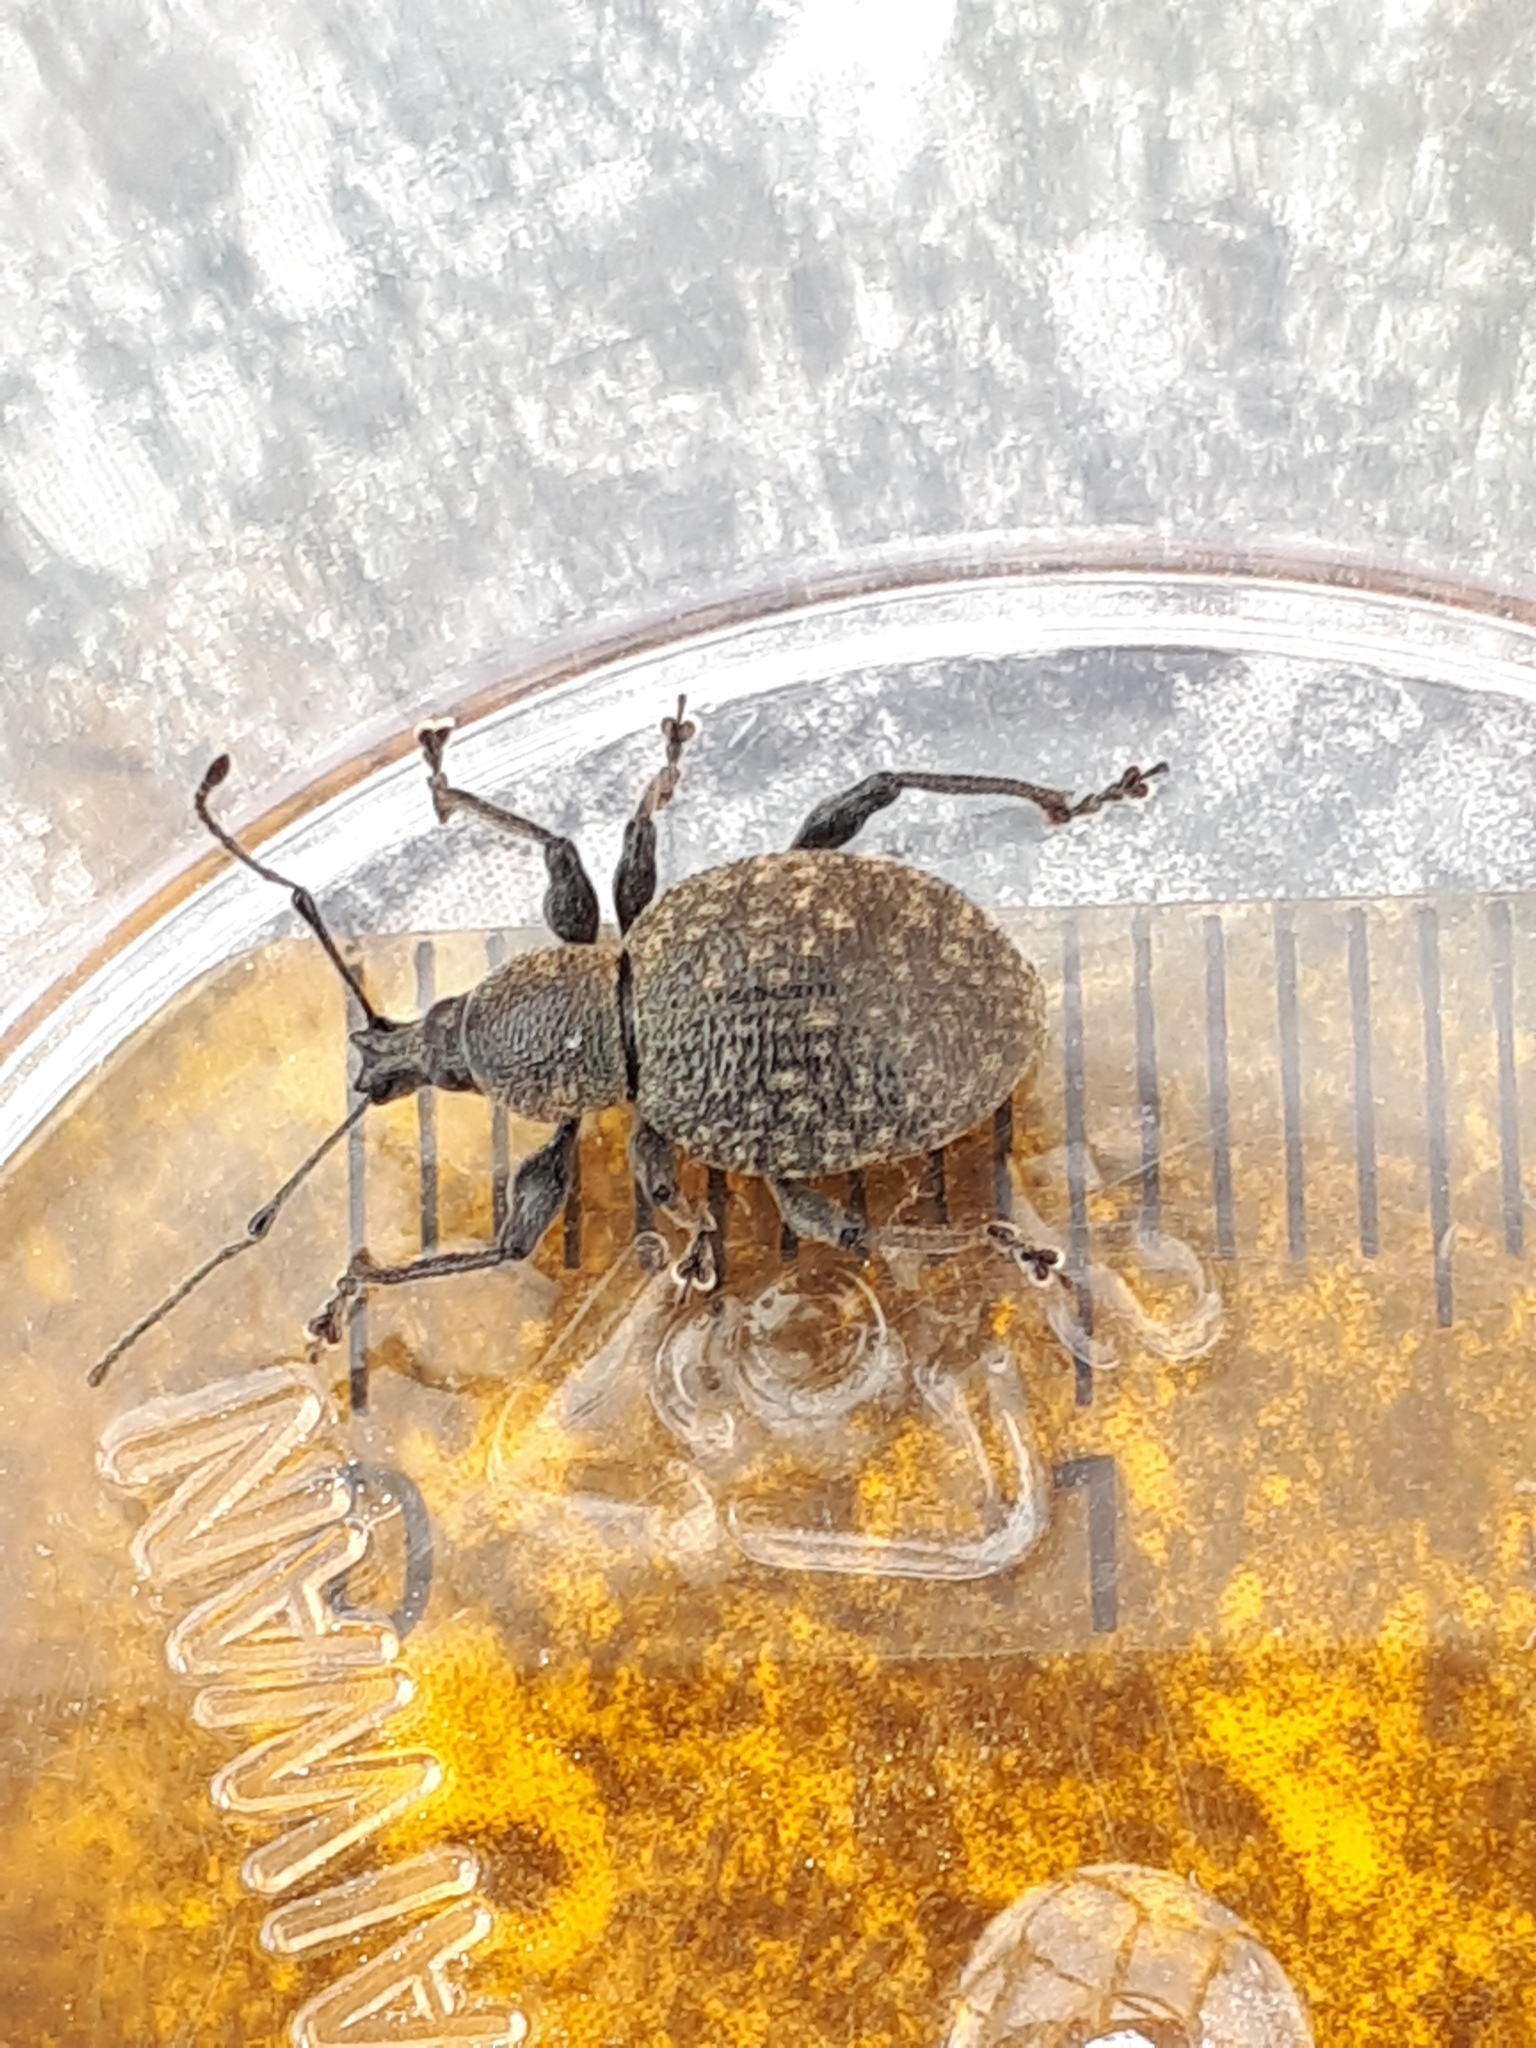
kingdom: Animalia
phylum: Arthropoda
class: Insecta
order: Coleoptera
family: Curculionidae
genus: Otiorhynchus
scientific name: Otiorhynchus armadillo
